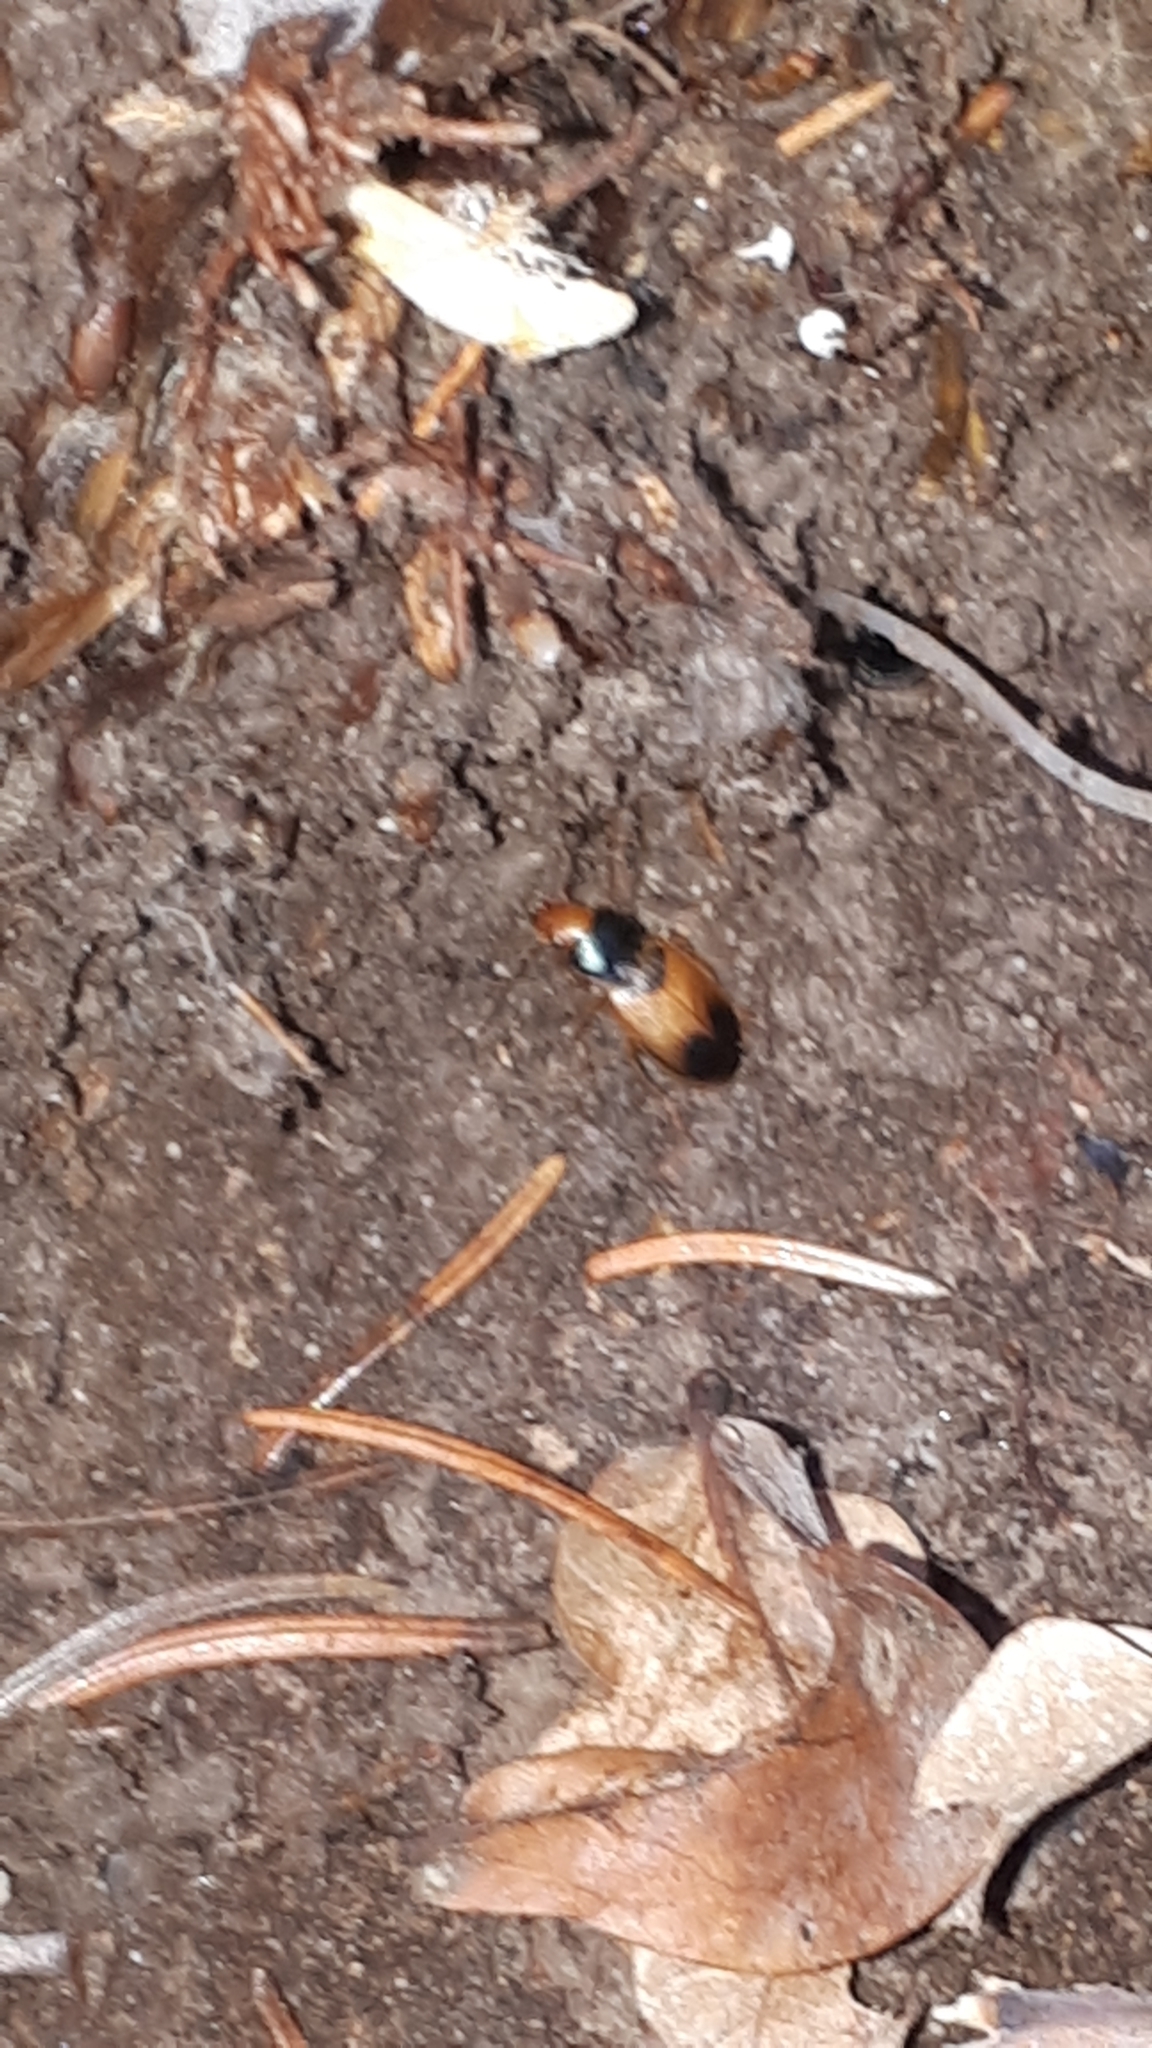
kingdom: Animalia
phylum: Arthropoda
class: Insecta
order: Coleoptera
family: Carabidae
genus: Diachromus
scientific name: Diachromus germanus
